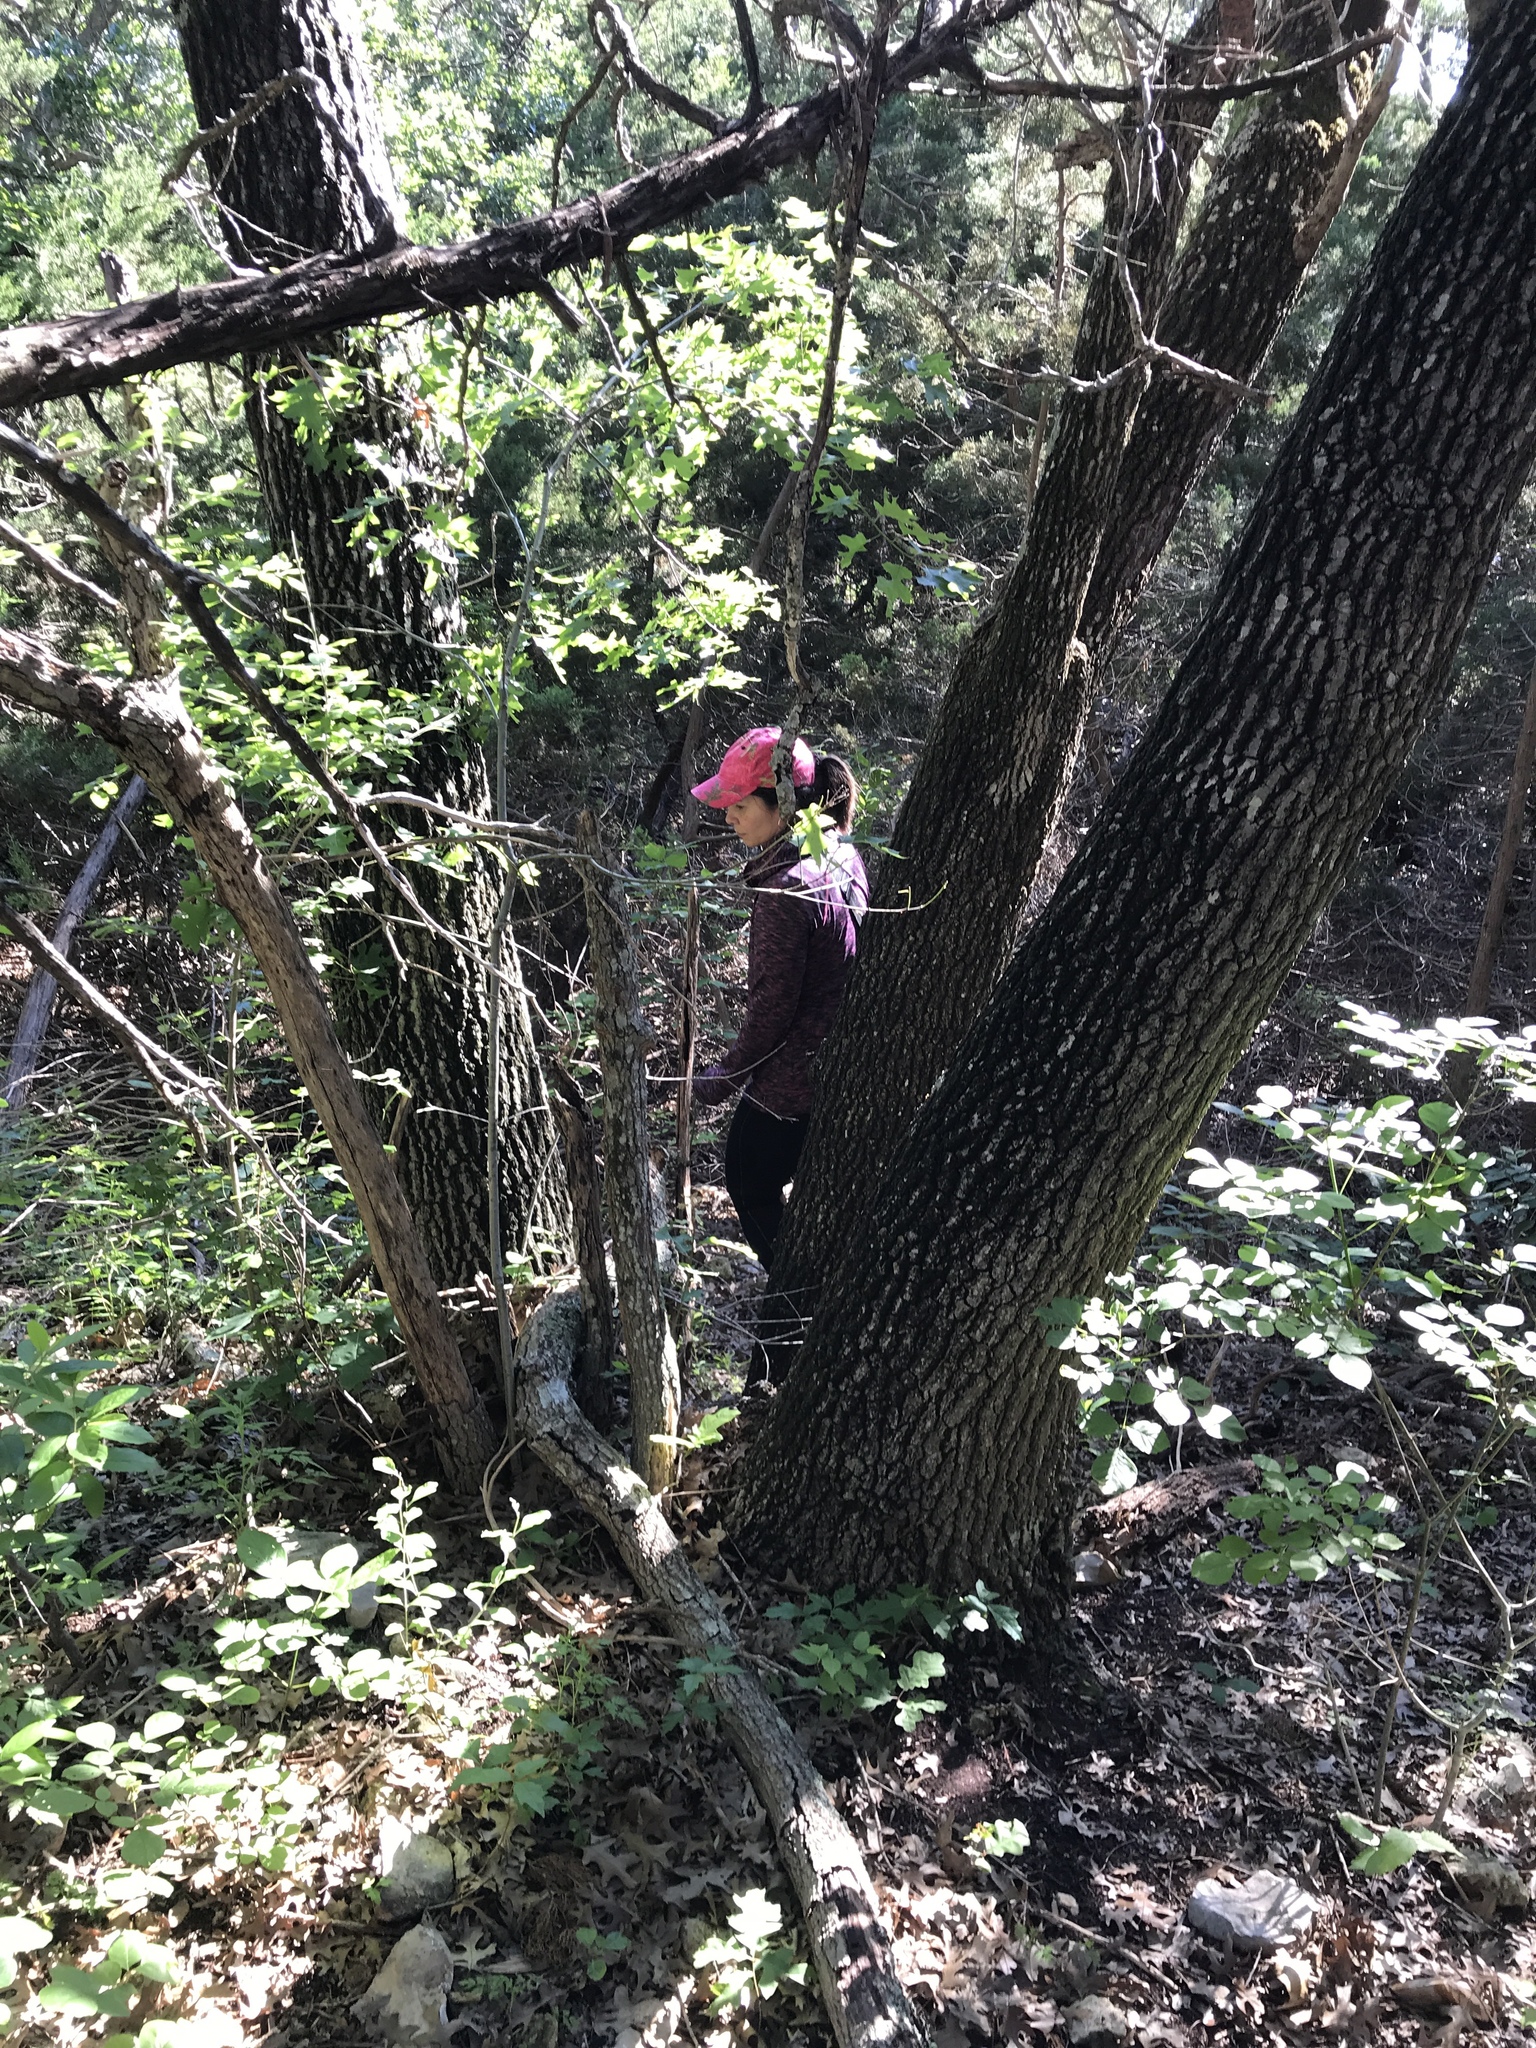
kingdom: Plantae
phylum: Tracheophyta
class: Magnoliopsida
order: Fagales
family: Fagaceae
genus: Quercus
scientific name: Quercus buckleyi
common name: Buckley oak
